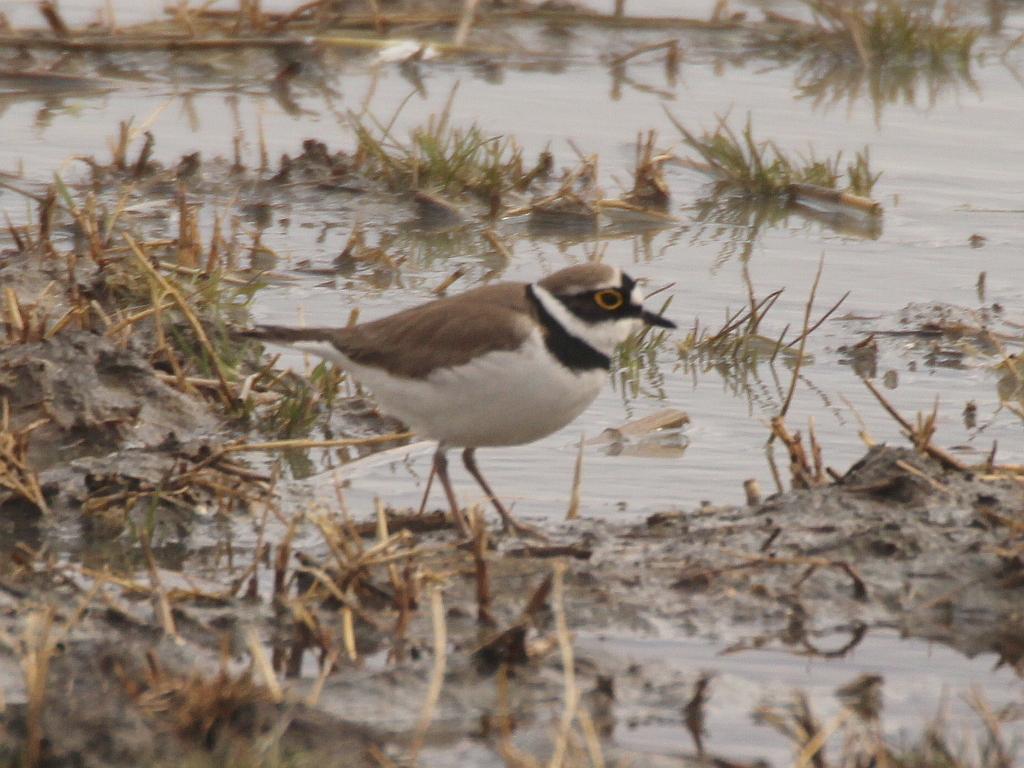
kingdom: Animalia
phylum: Chordata
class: Aves
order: Charadriiformes
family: Charadriidae
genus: Charadrius
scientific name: Charadrius dubius
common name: Little ringed plover
